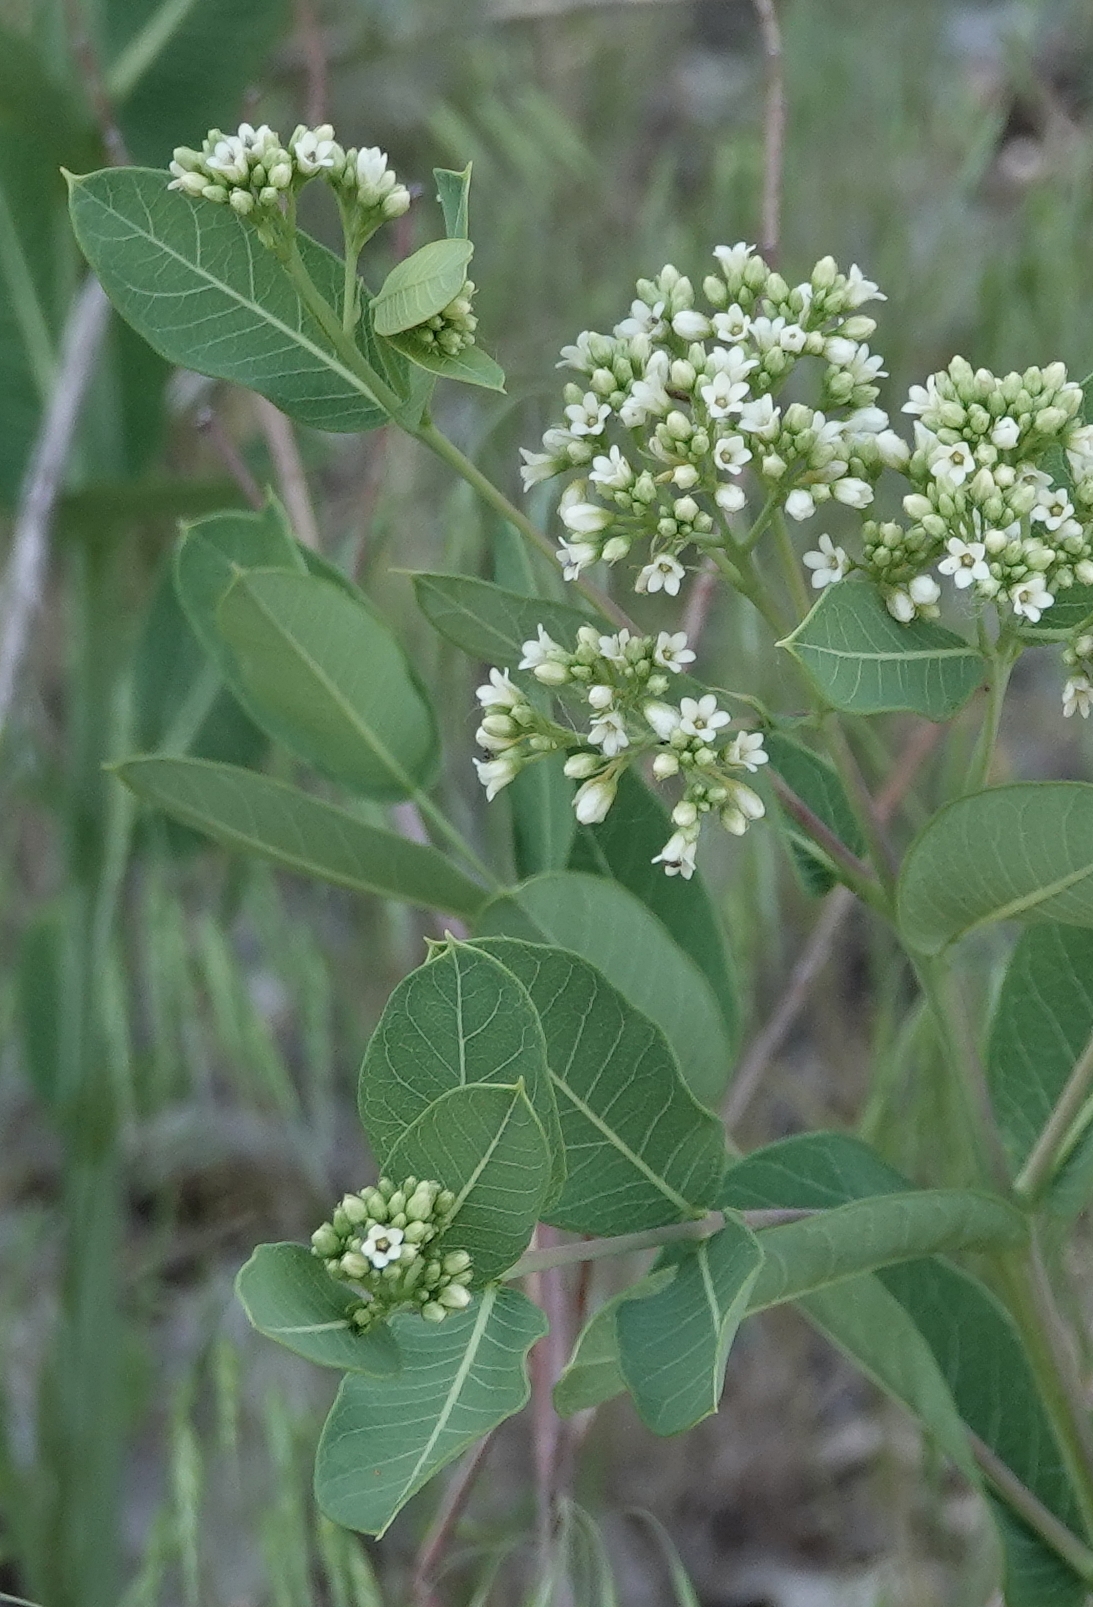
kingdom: Plantae
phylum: Tracheophyta
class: Magnoliopsida
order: Gentianales
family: Apocynaceae
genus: Apocynum
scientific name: Apocynum cannabinum
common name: Hemp dogbane
